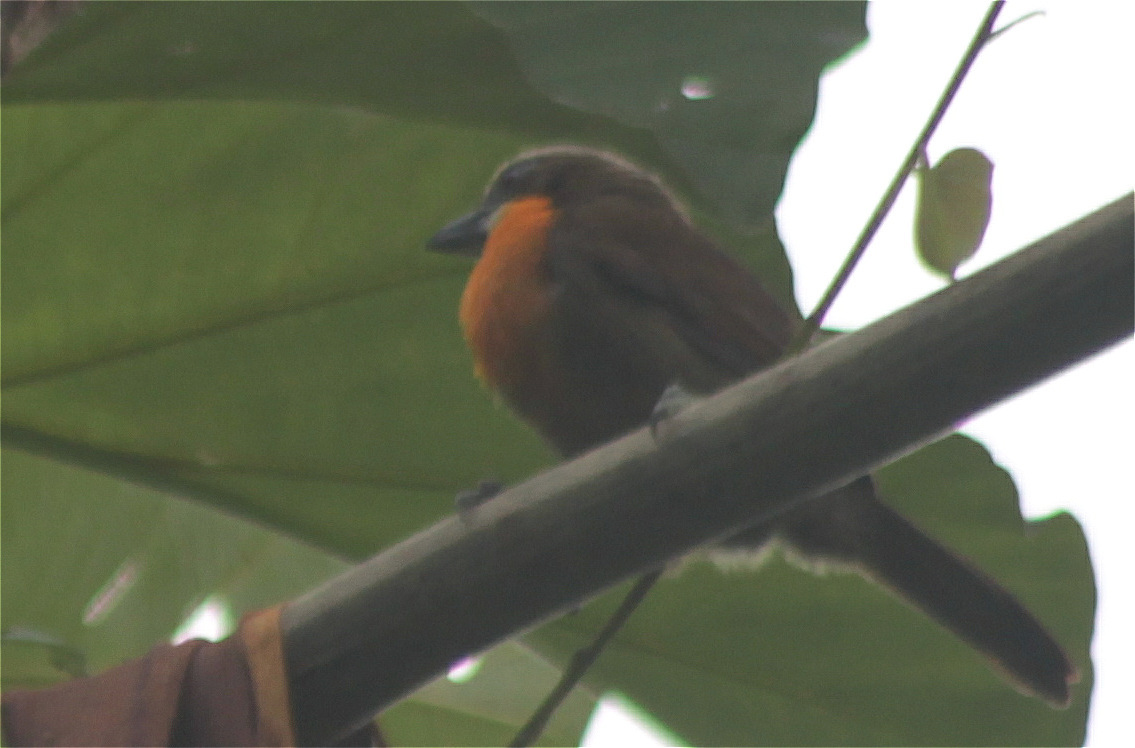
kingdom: Animalia
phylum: Chordata
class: Aves
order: Piciformes
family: Capitonidae
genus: Capito
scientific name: Capito aurovirens
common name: Scarlet-crowned barbet
